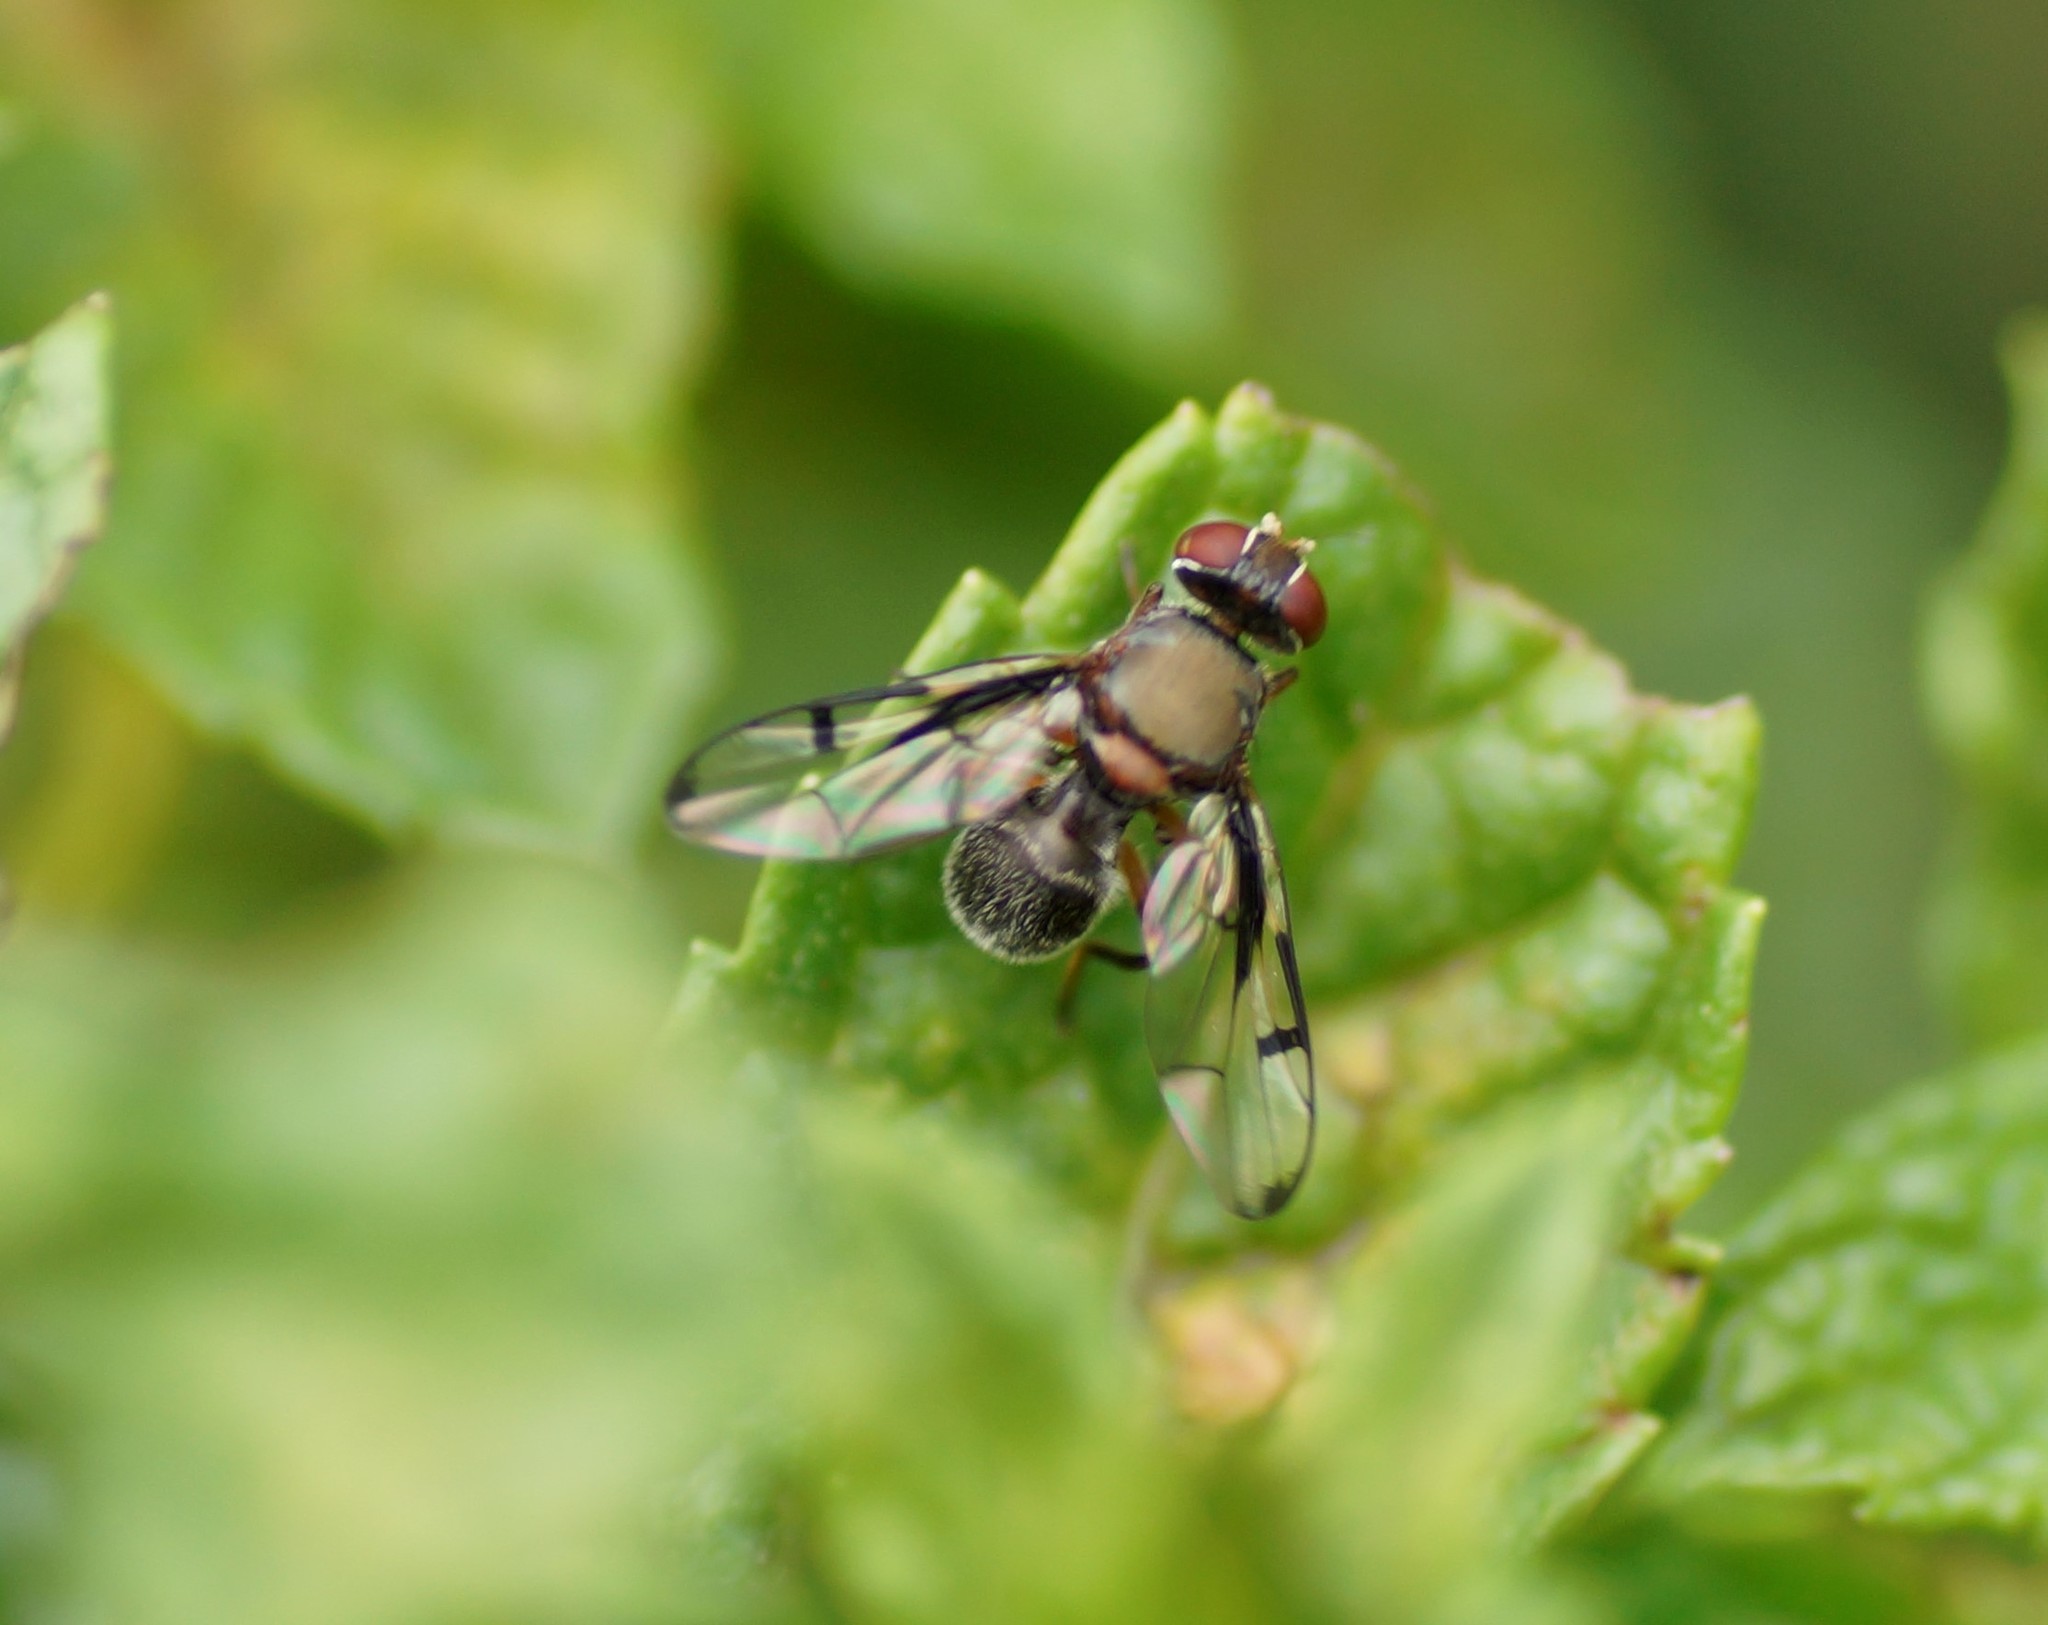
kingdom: Animalia
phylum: Arthropoda
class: Insecta
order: Diptera
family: Platystomatidae
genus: Pogonortalis
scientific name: Pogonortalis doclea
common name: Boatman fly
